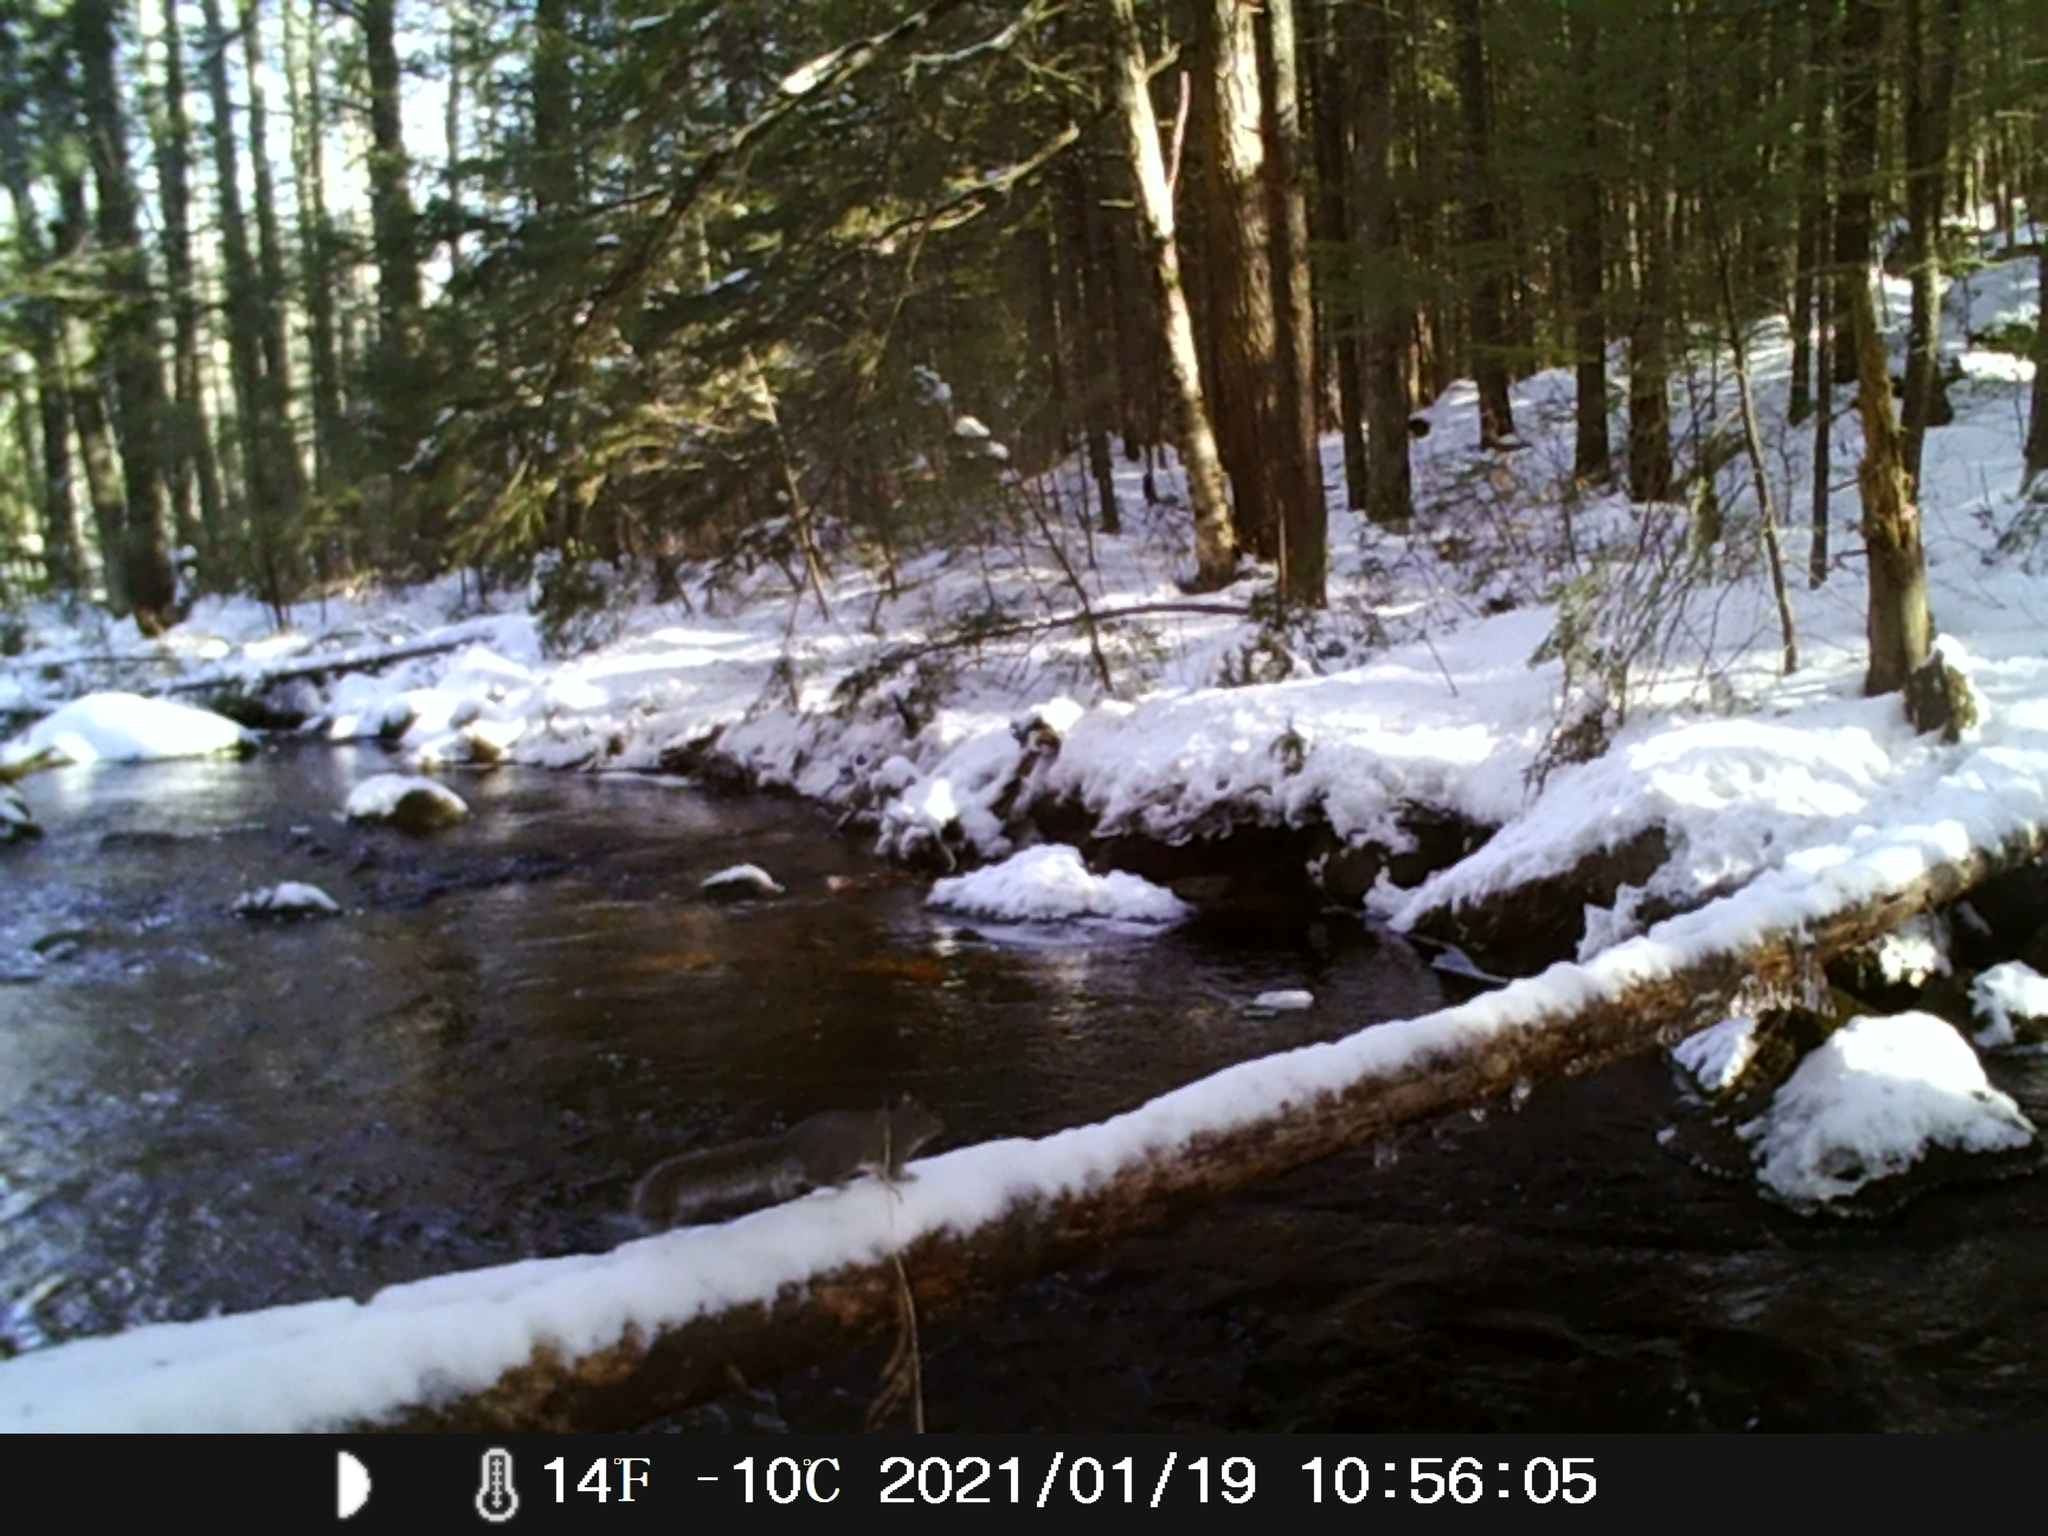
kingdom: Animalia
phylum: Chordata
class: Mammalia
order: Rodentia
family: Sciuridae
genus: Sciurus
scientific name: Sciurus carolinensis
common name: Eastern gray squirrel
